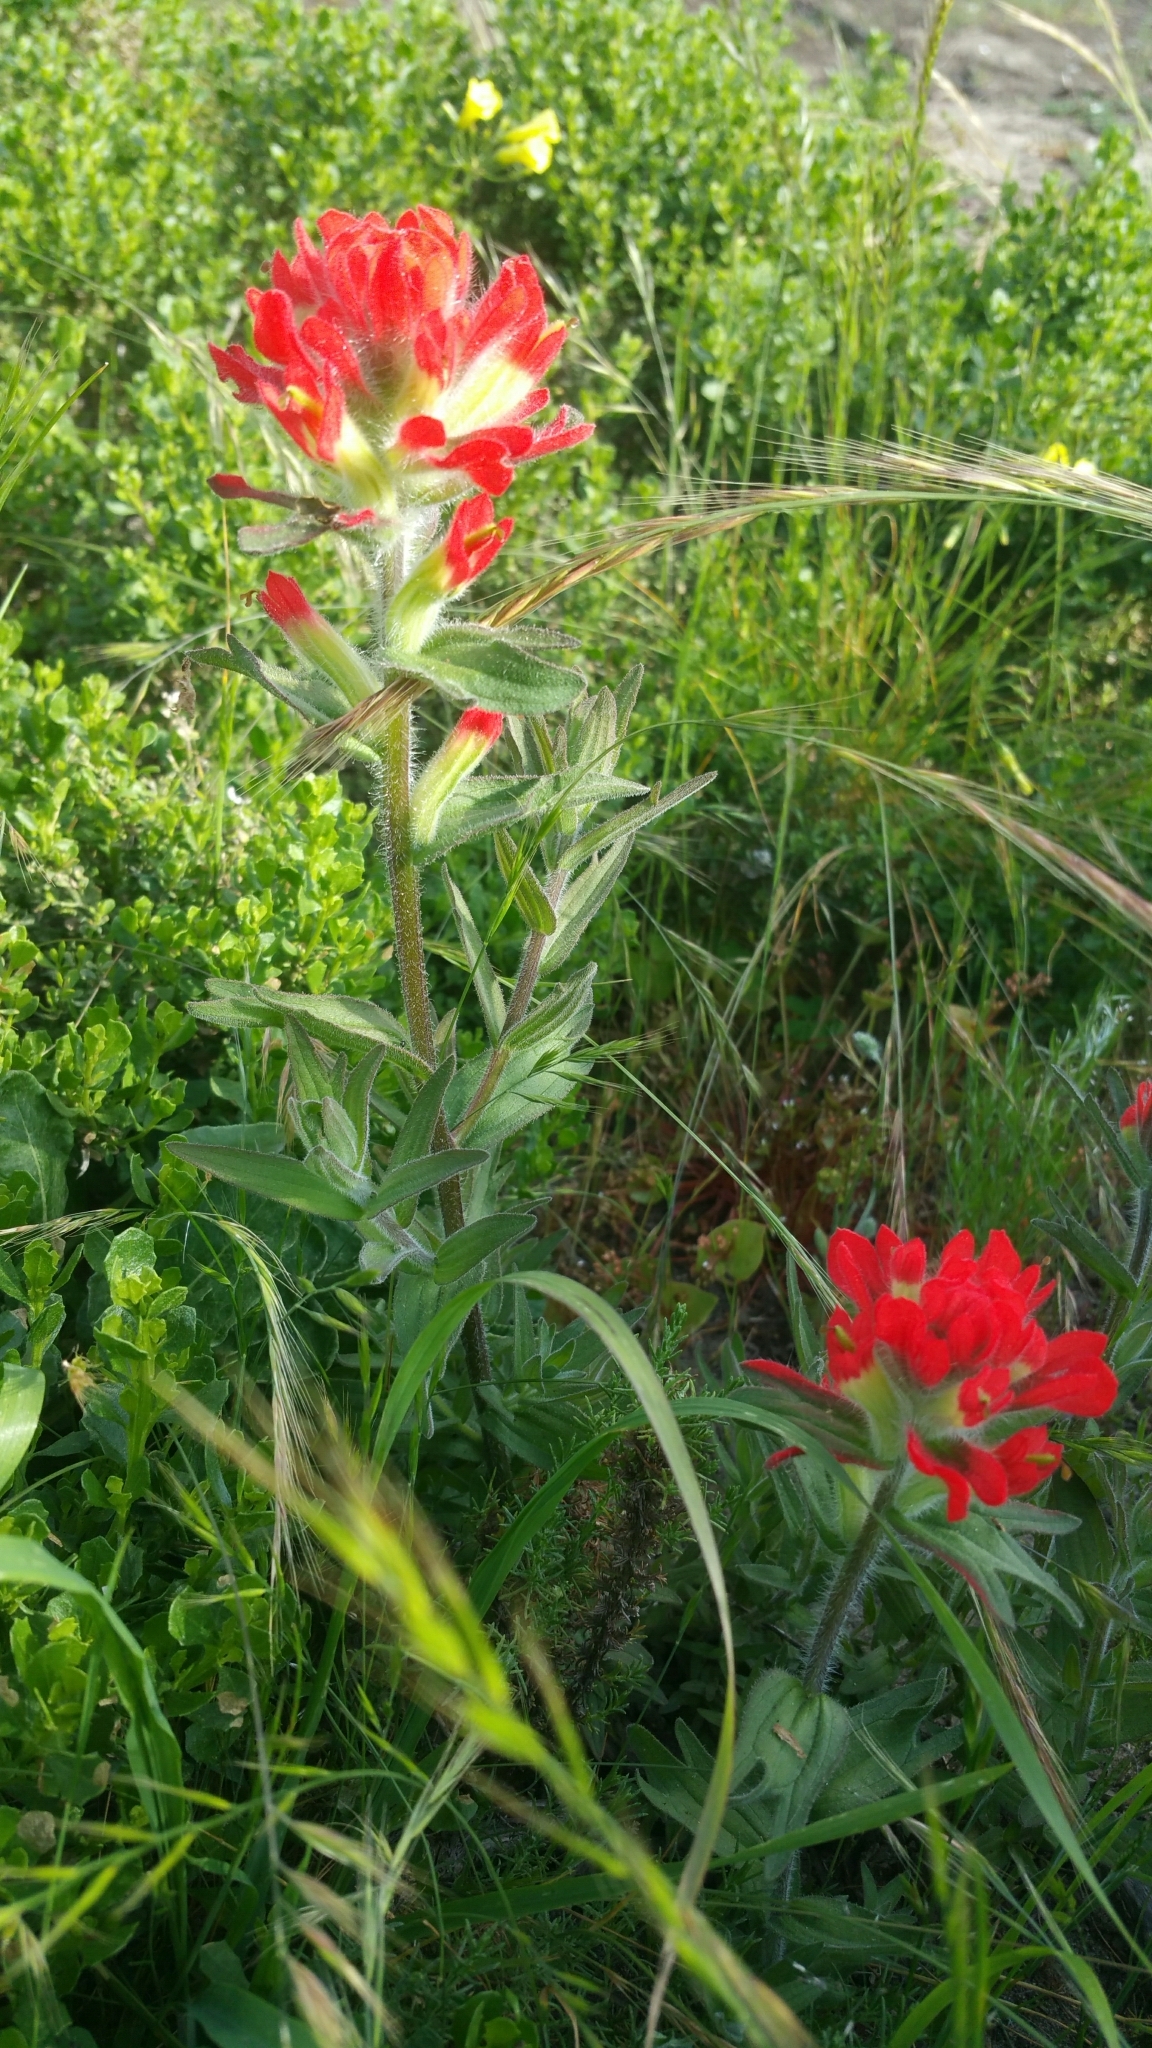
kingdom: Plantae
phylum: Tracheophyta
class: Magnoliopsida
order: Lamiales
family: Orobanchaceae
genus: Castilleja
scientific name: Castilleja affinis
